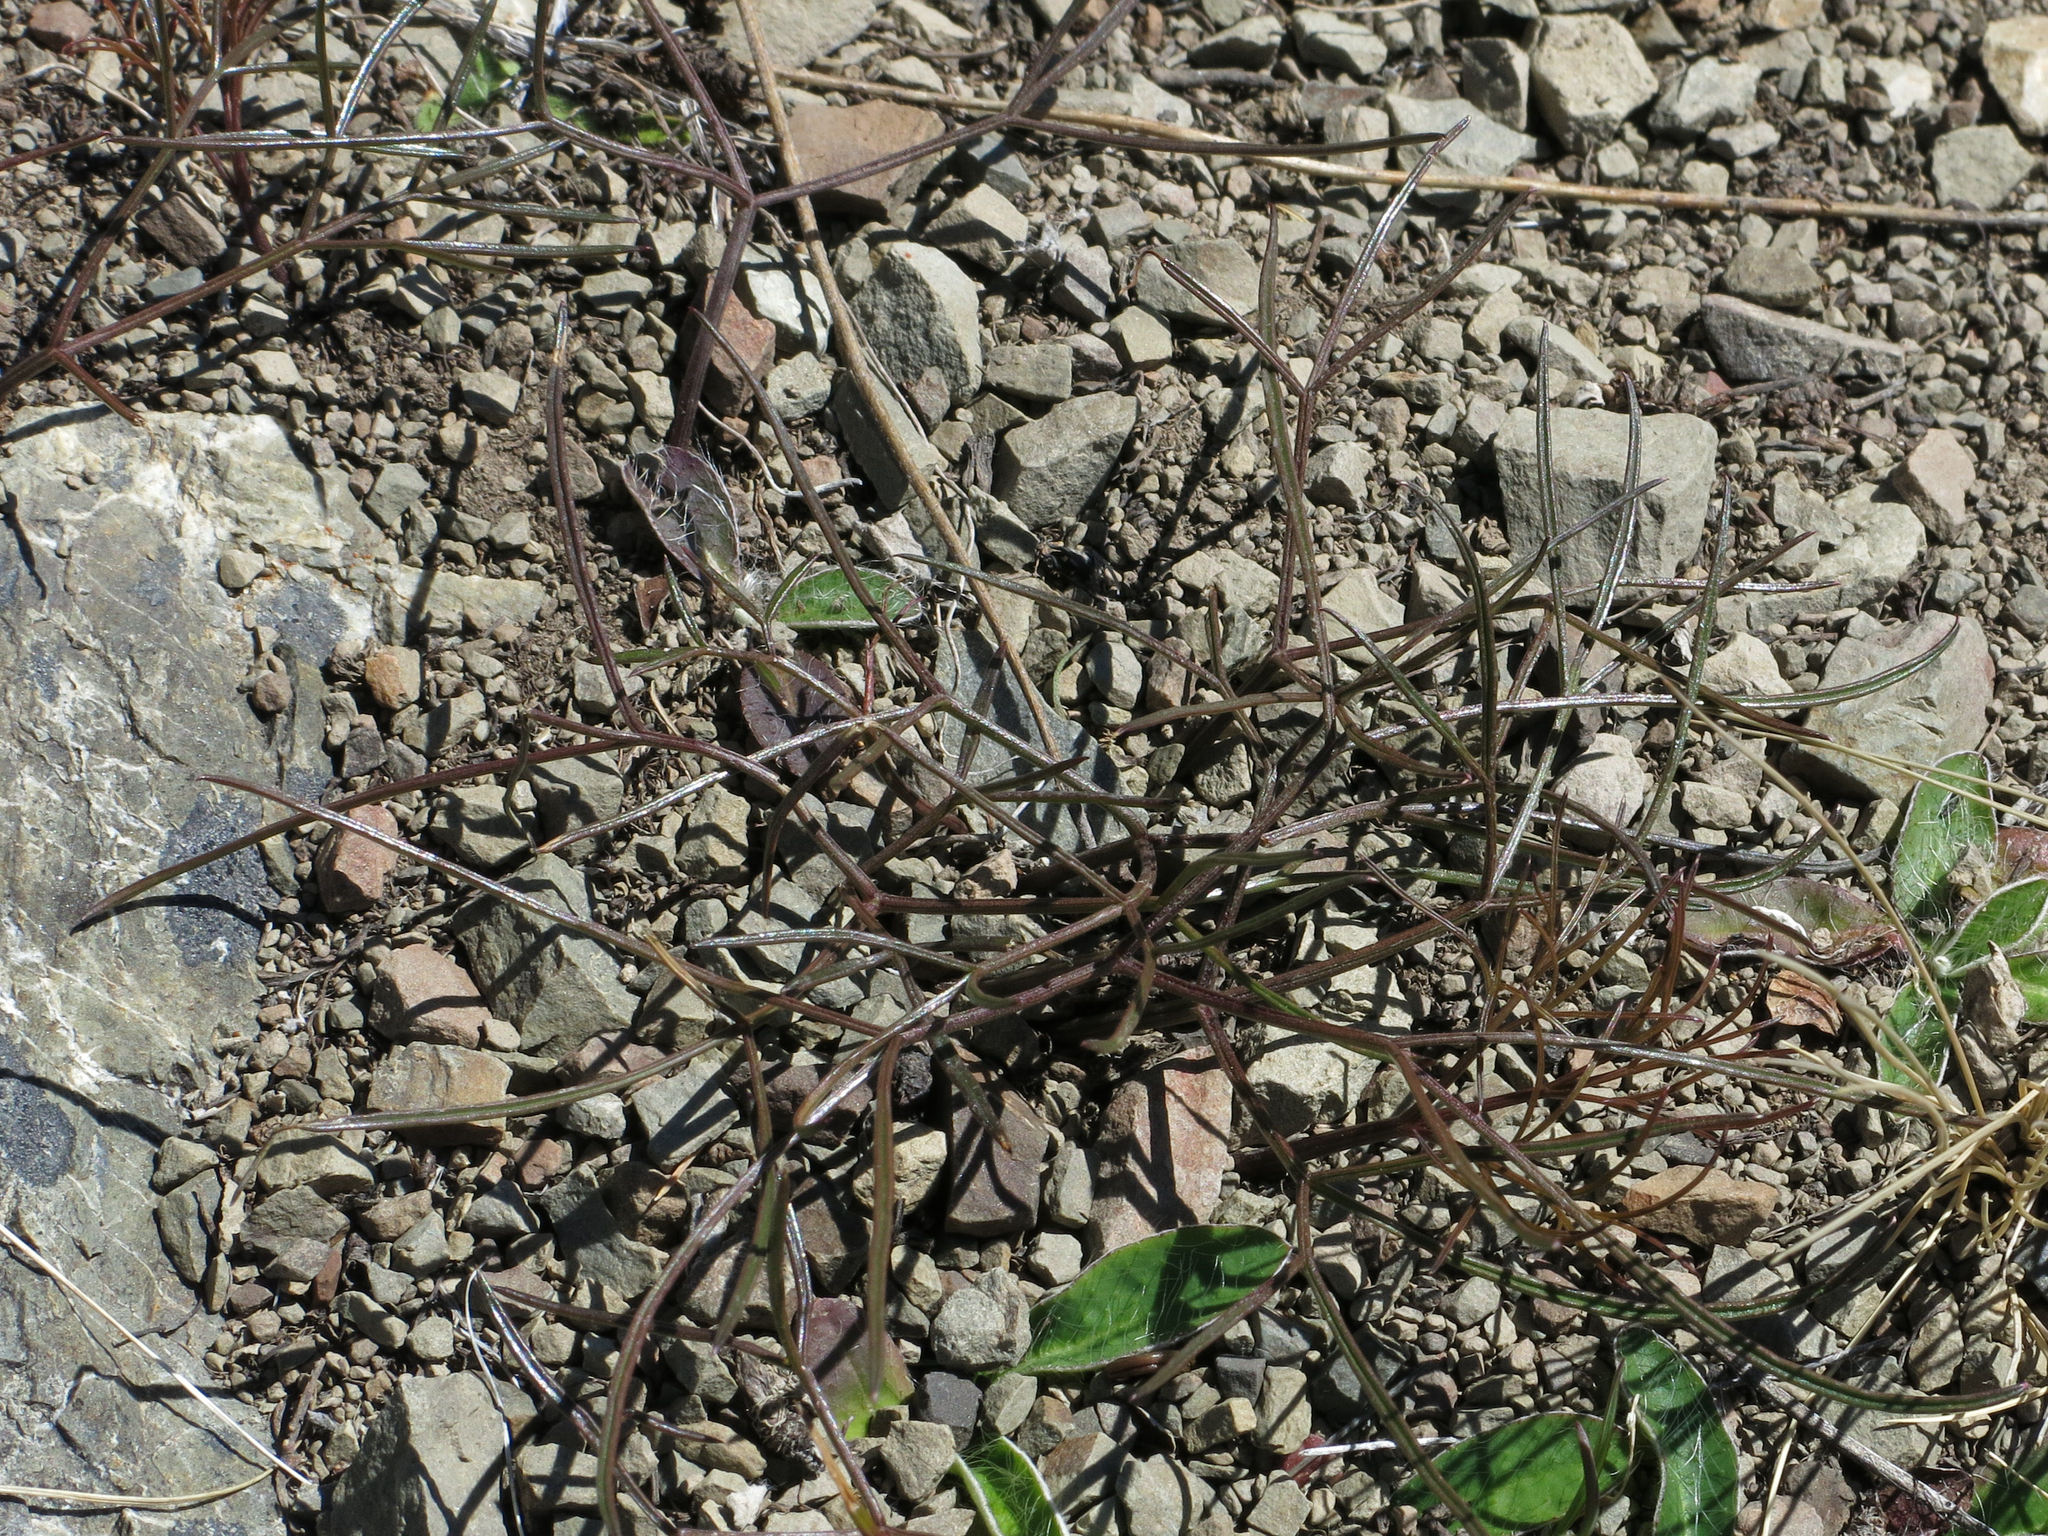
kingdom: Plantae
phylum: Tracheophyta
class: Magnoliopsida
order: Apiales
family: Apiaceae
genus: Anisotome
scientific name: Anisotome filifolia
